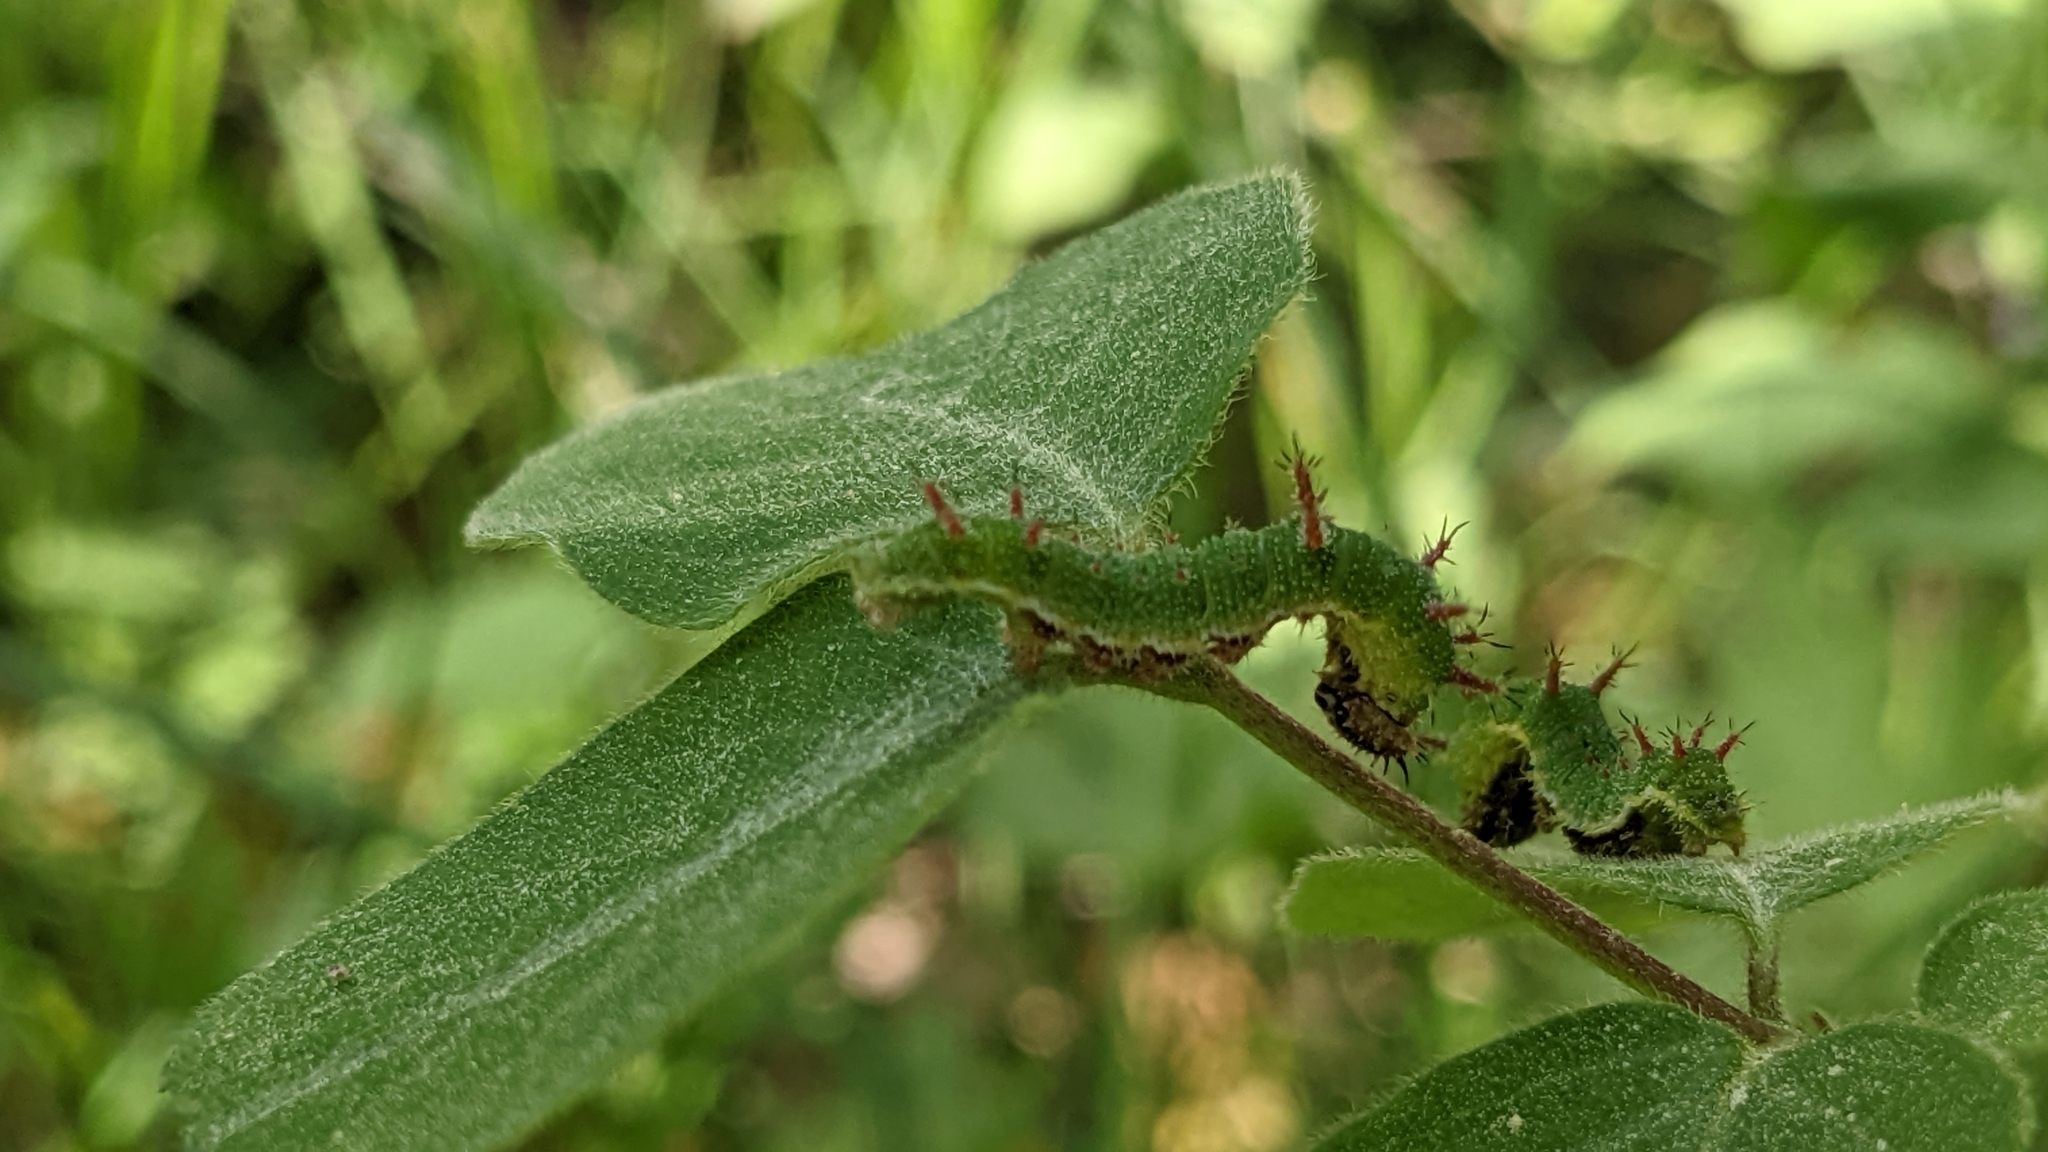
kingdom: Animalia
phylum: Arthropoda
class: Insecta
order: Lepidoptera
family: Nymphalidae
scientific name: Nymphalidae
